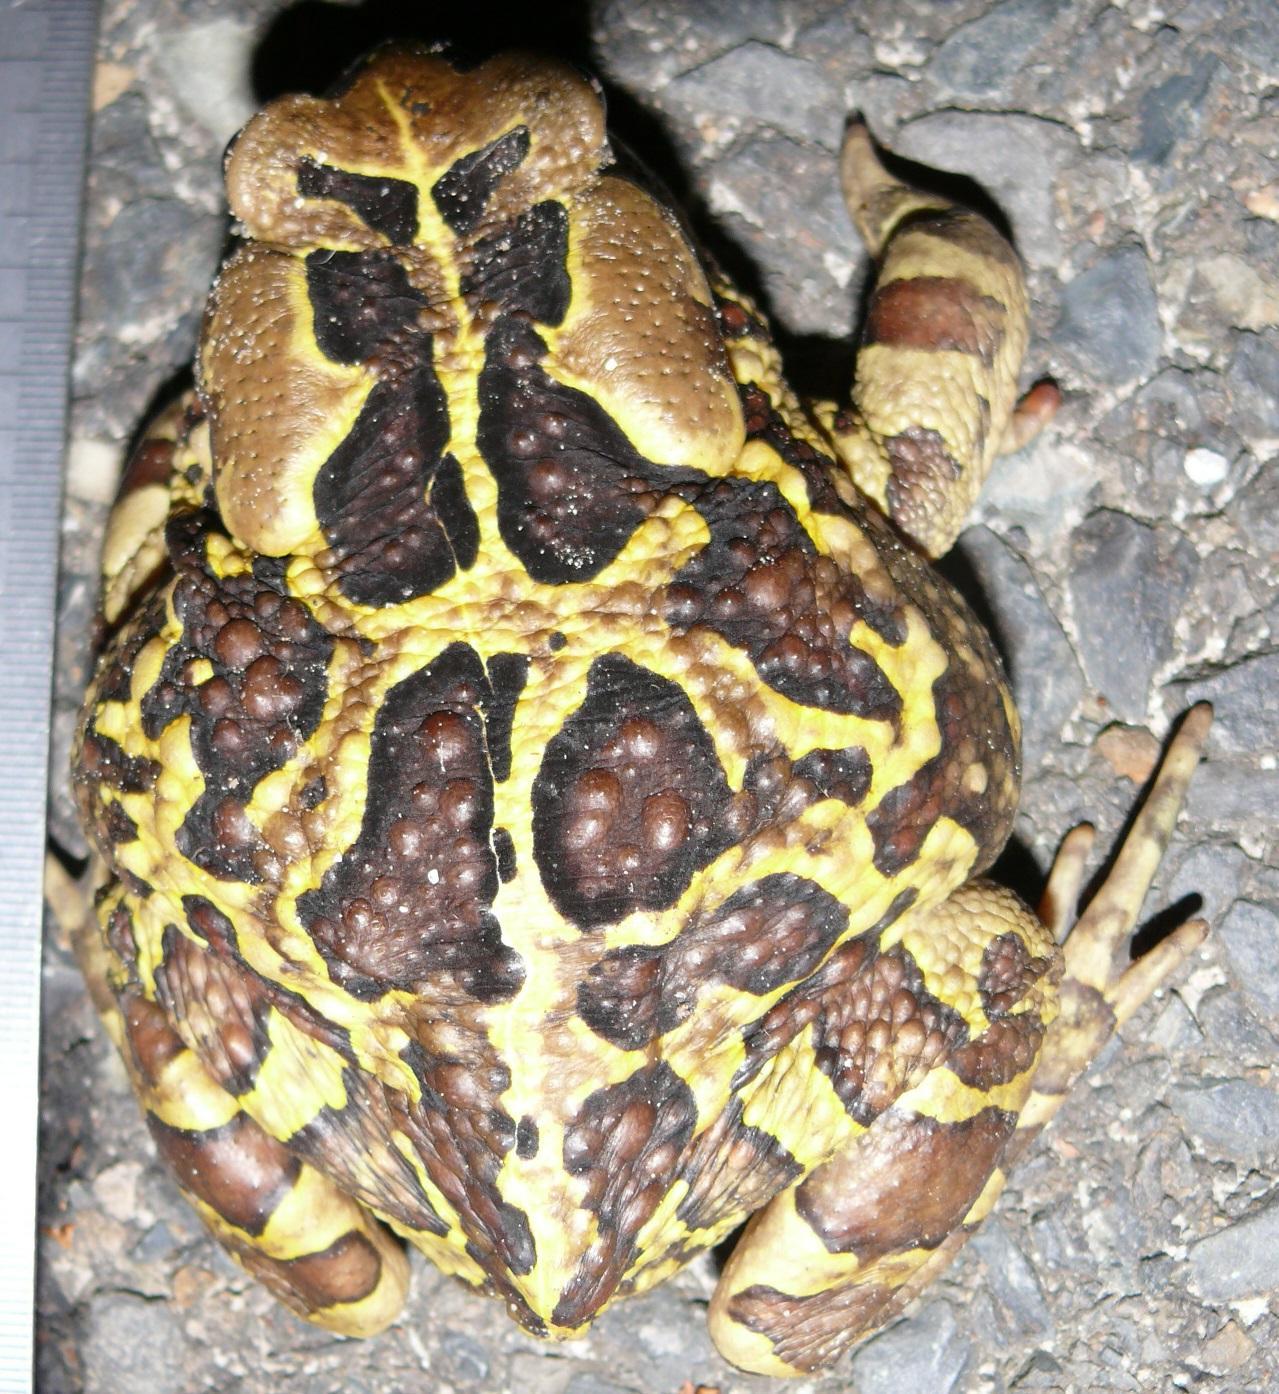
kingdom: Animalia
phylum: Chordata
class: Amphibia
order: Anura
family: Bufonidae
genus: Sclerophrys
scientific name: Sclerophrys pantherina
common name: Panther toad
